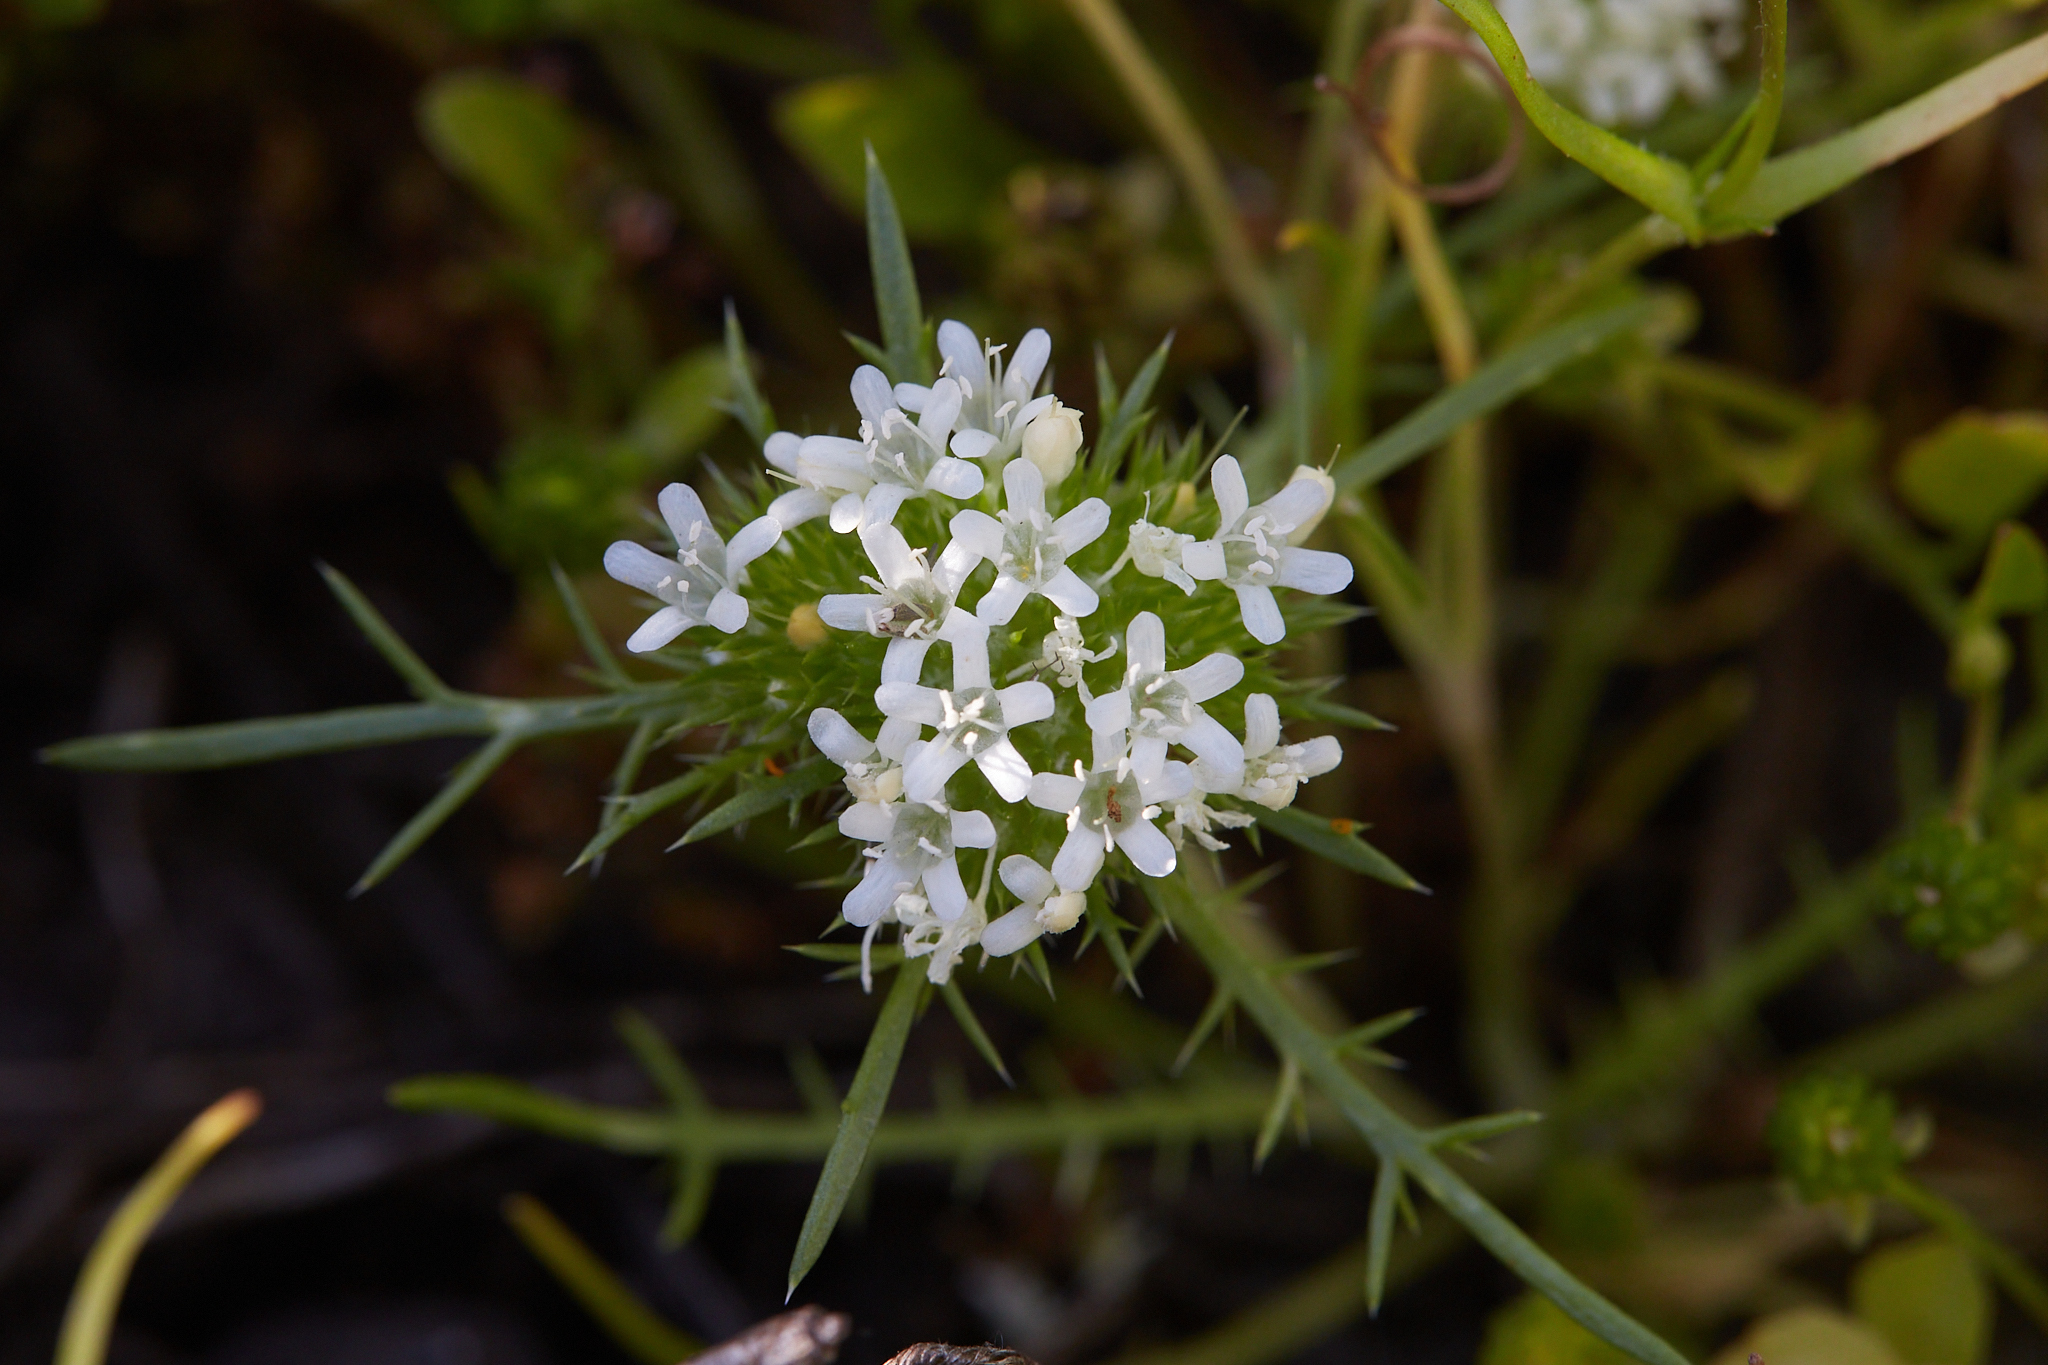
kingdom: Plantae
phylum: Tracheophyta
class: Magnoliopsida
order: Ericales
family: Polemoniaceae
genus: Navarretia
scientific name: Navarretia leucocephala
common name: White-flowered navarretia
